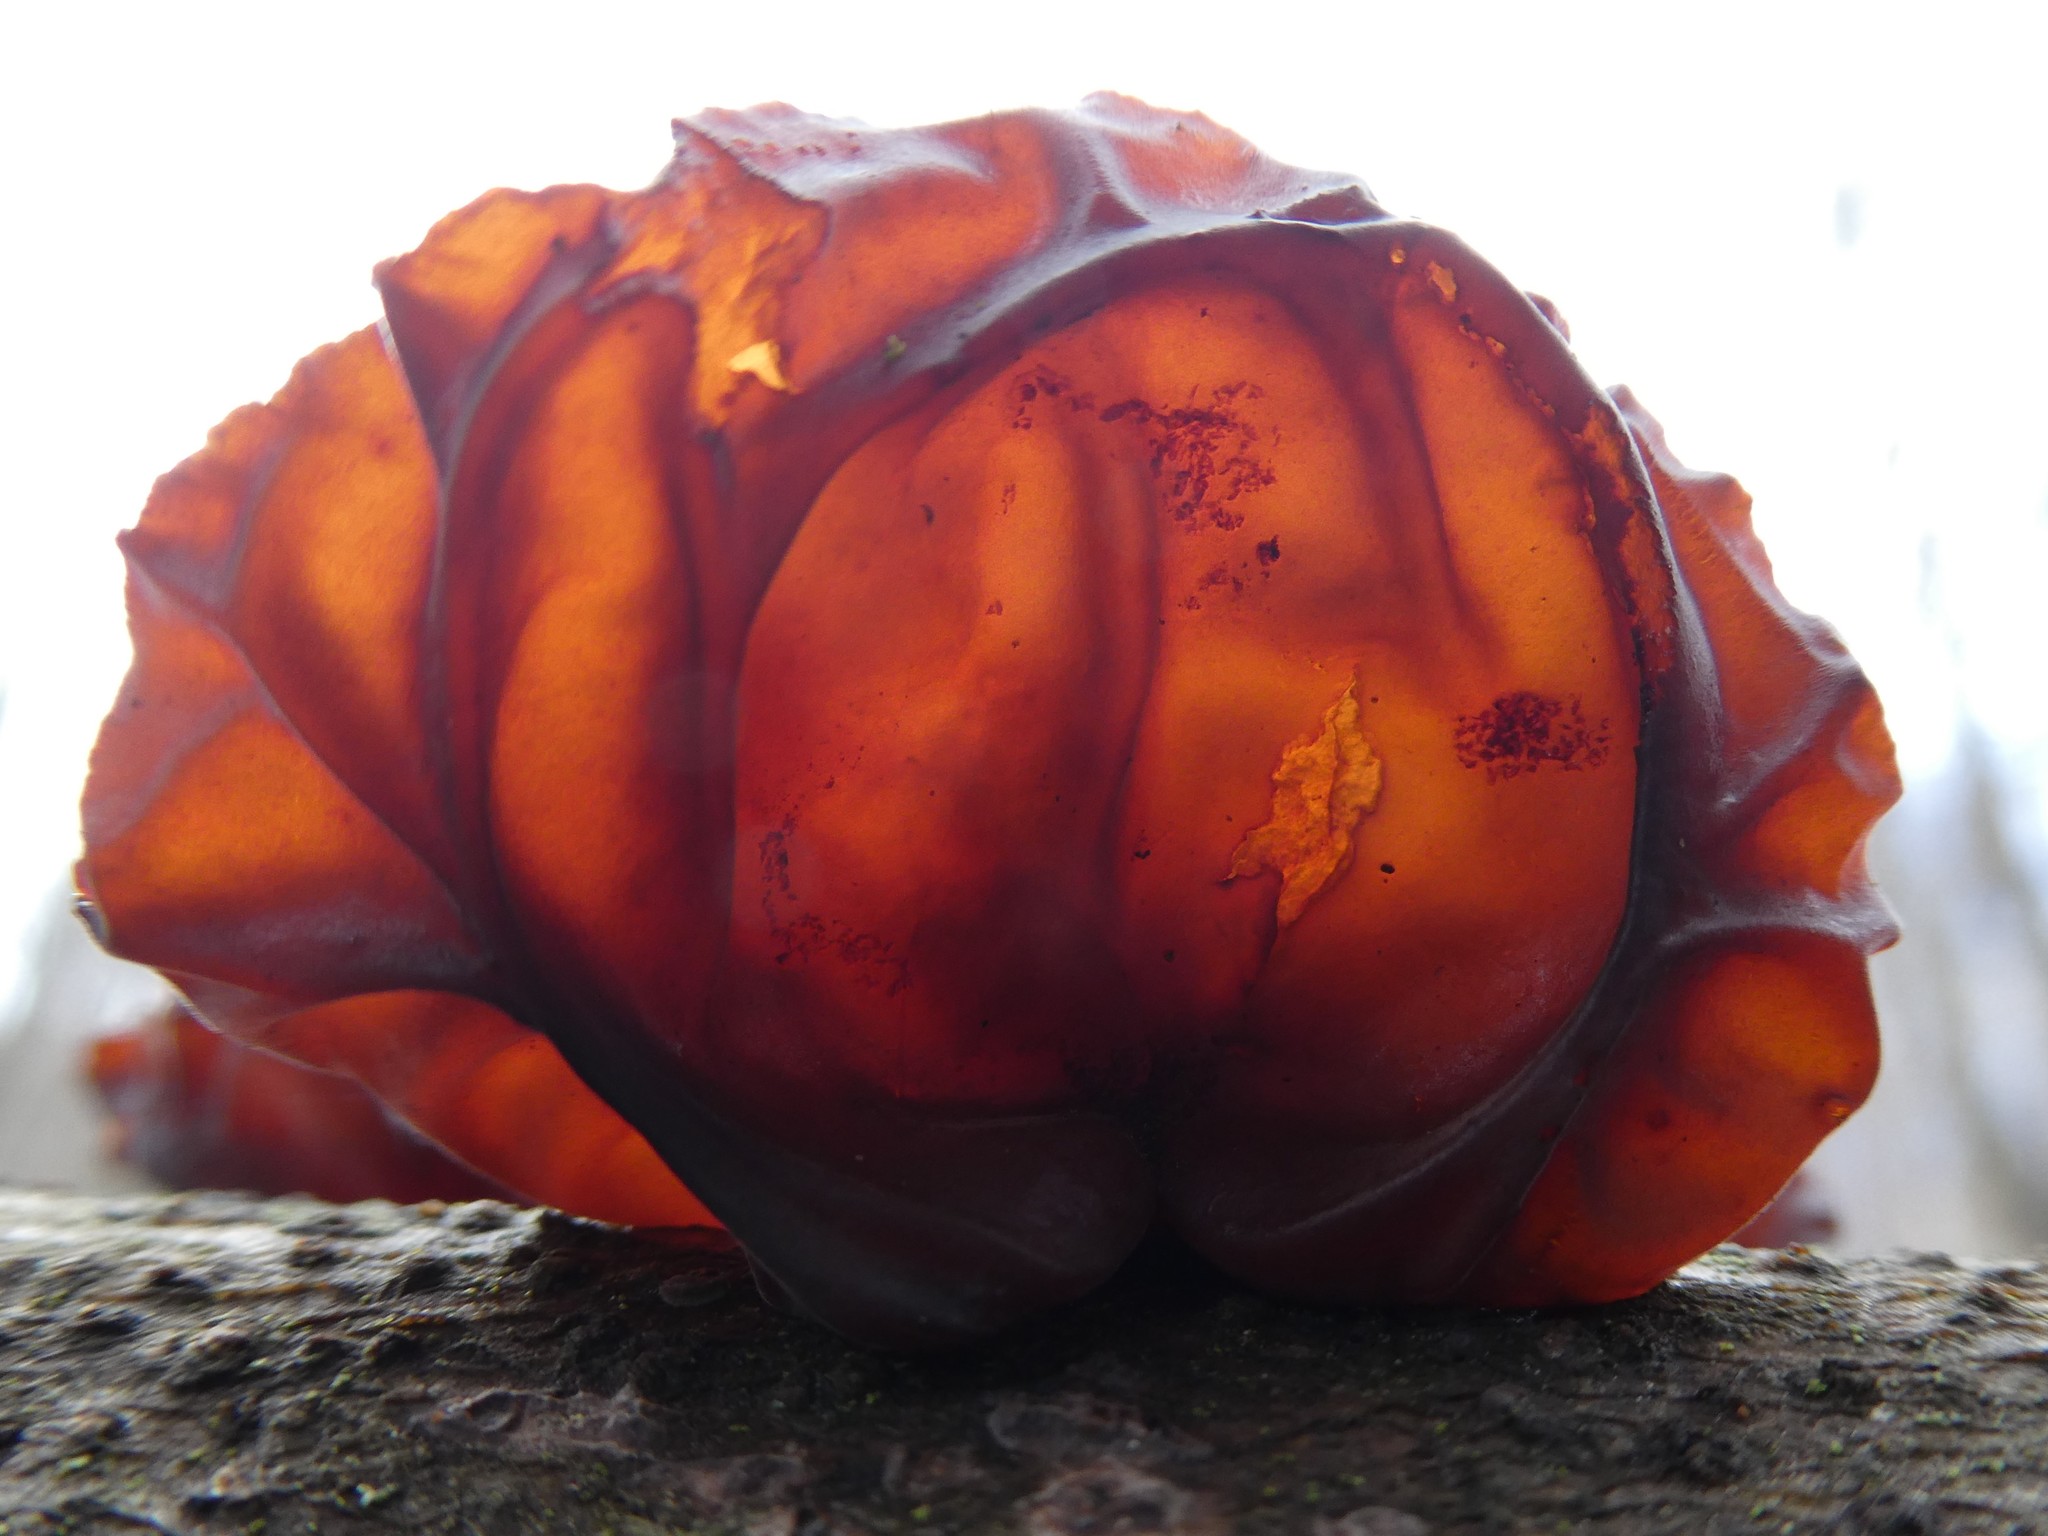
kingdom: Fungi
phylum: Basidiomycota
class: Agaricomycetes
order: Auriculariales
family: Auriculariaceae
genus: Exidia
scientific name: Exidia
